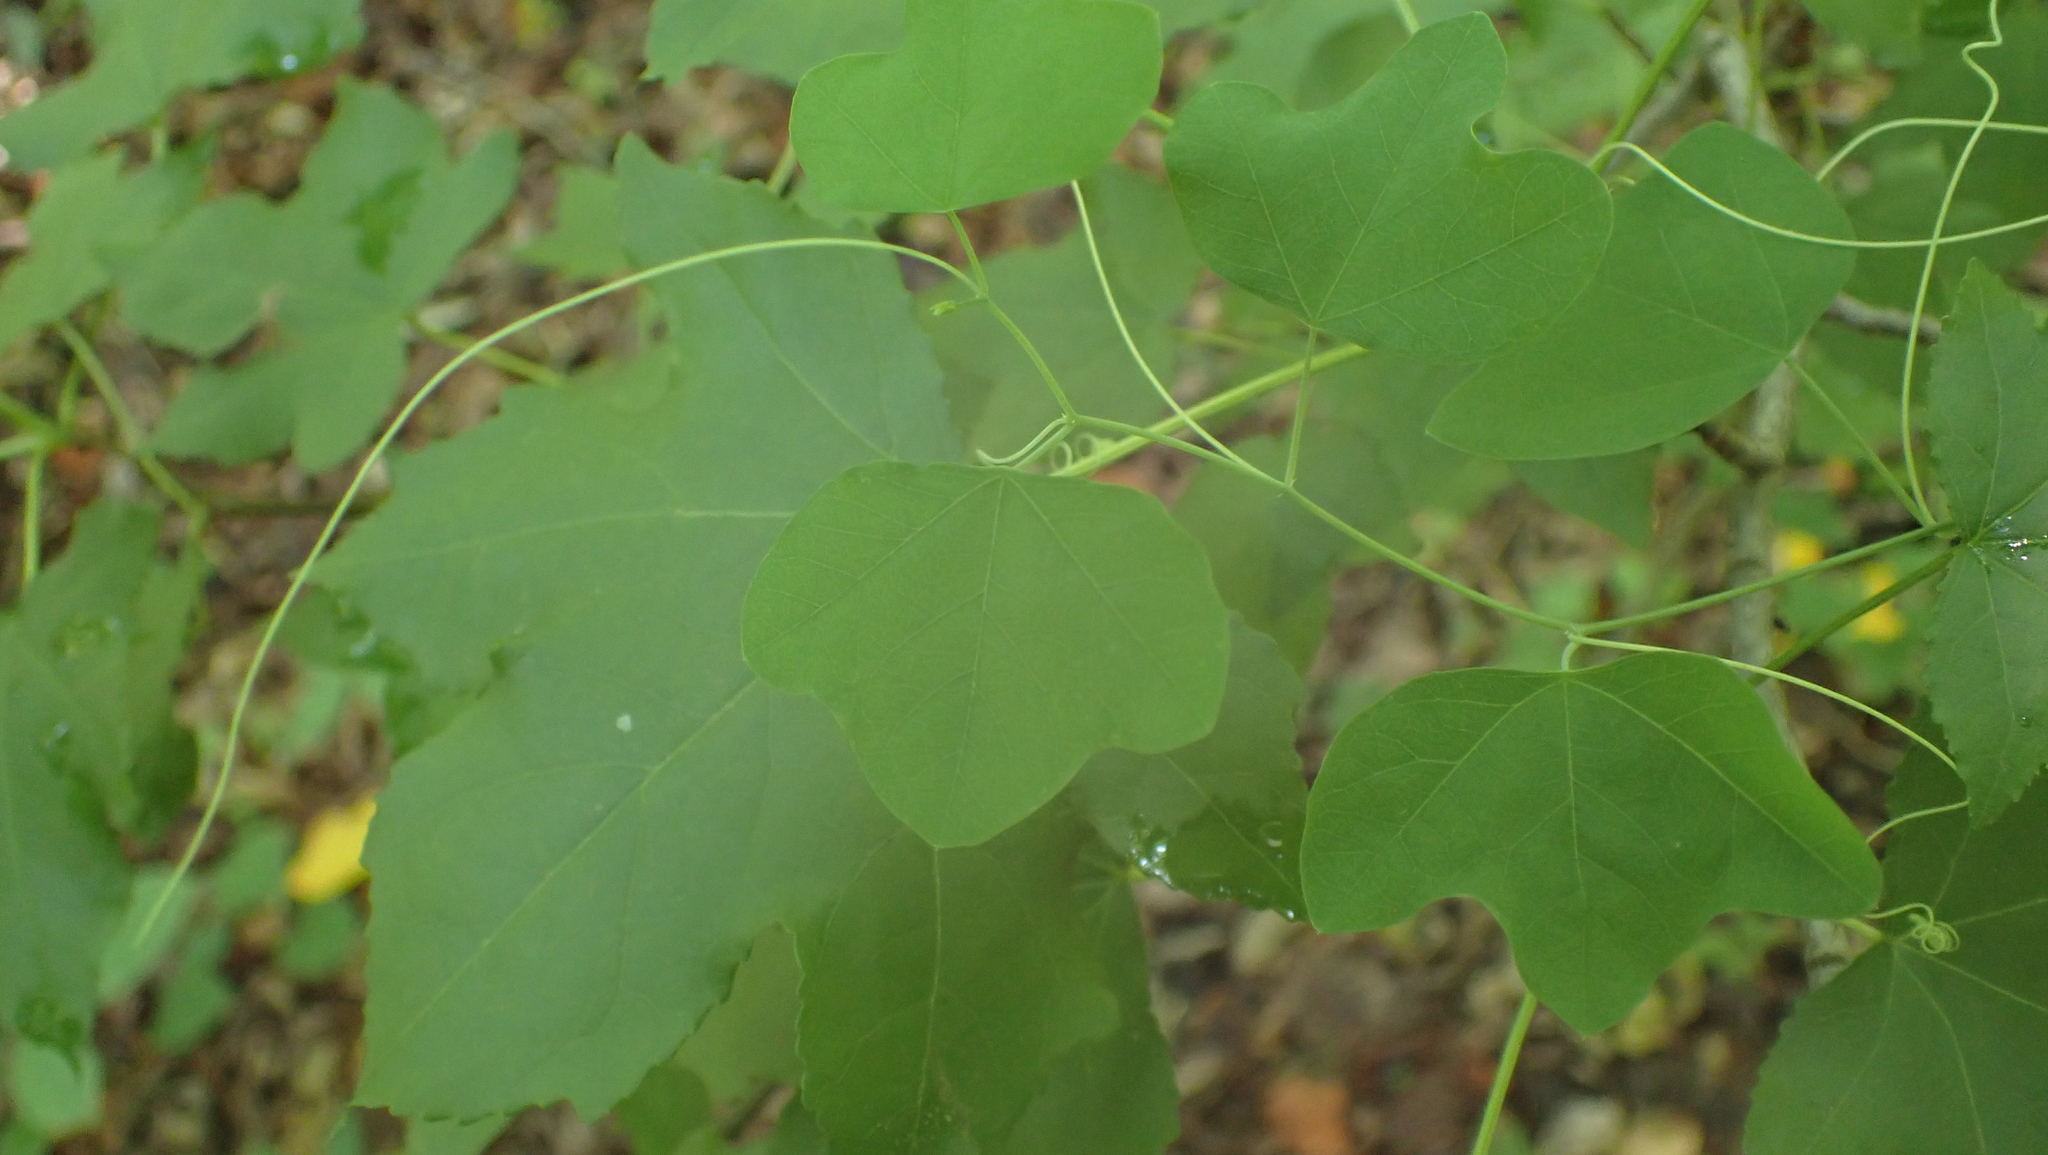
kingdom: Plantae
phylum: Tracheophyta
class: Magnoliopsida
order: Malpighiales
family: Passifloraceae
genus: Passiflora
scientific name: Passiflora lutea
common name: Yellow passionflower
